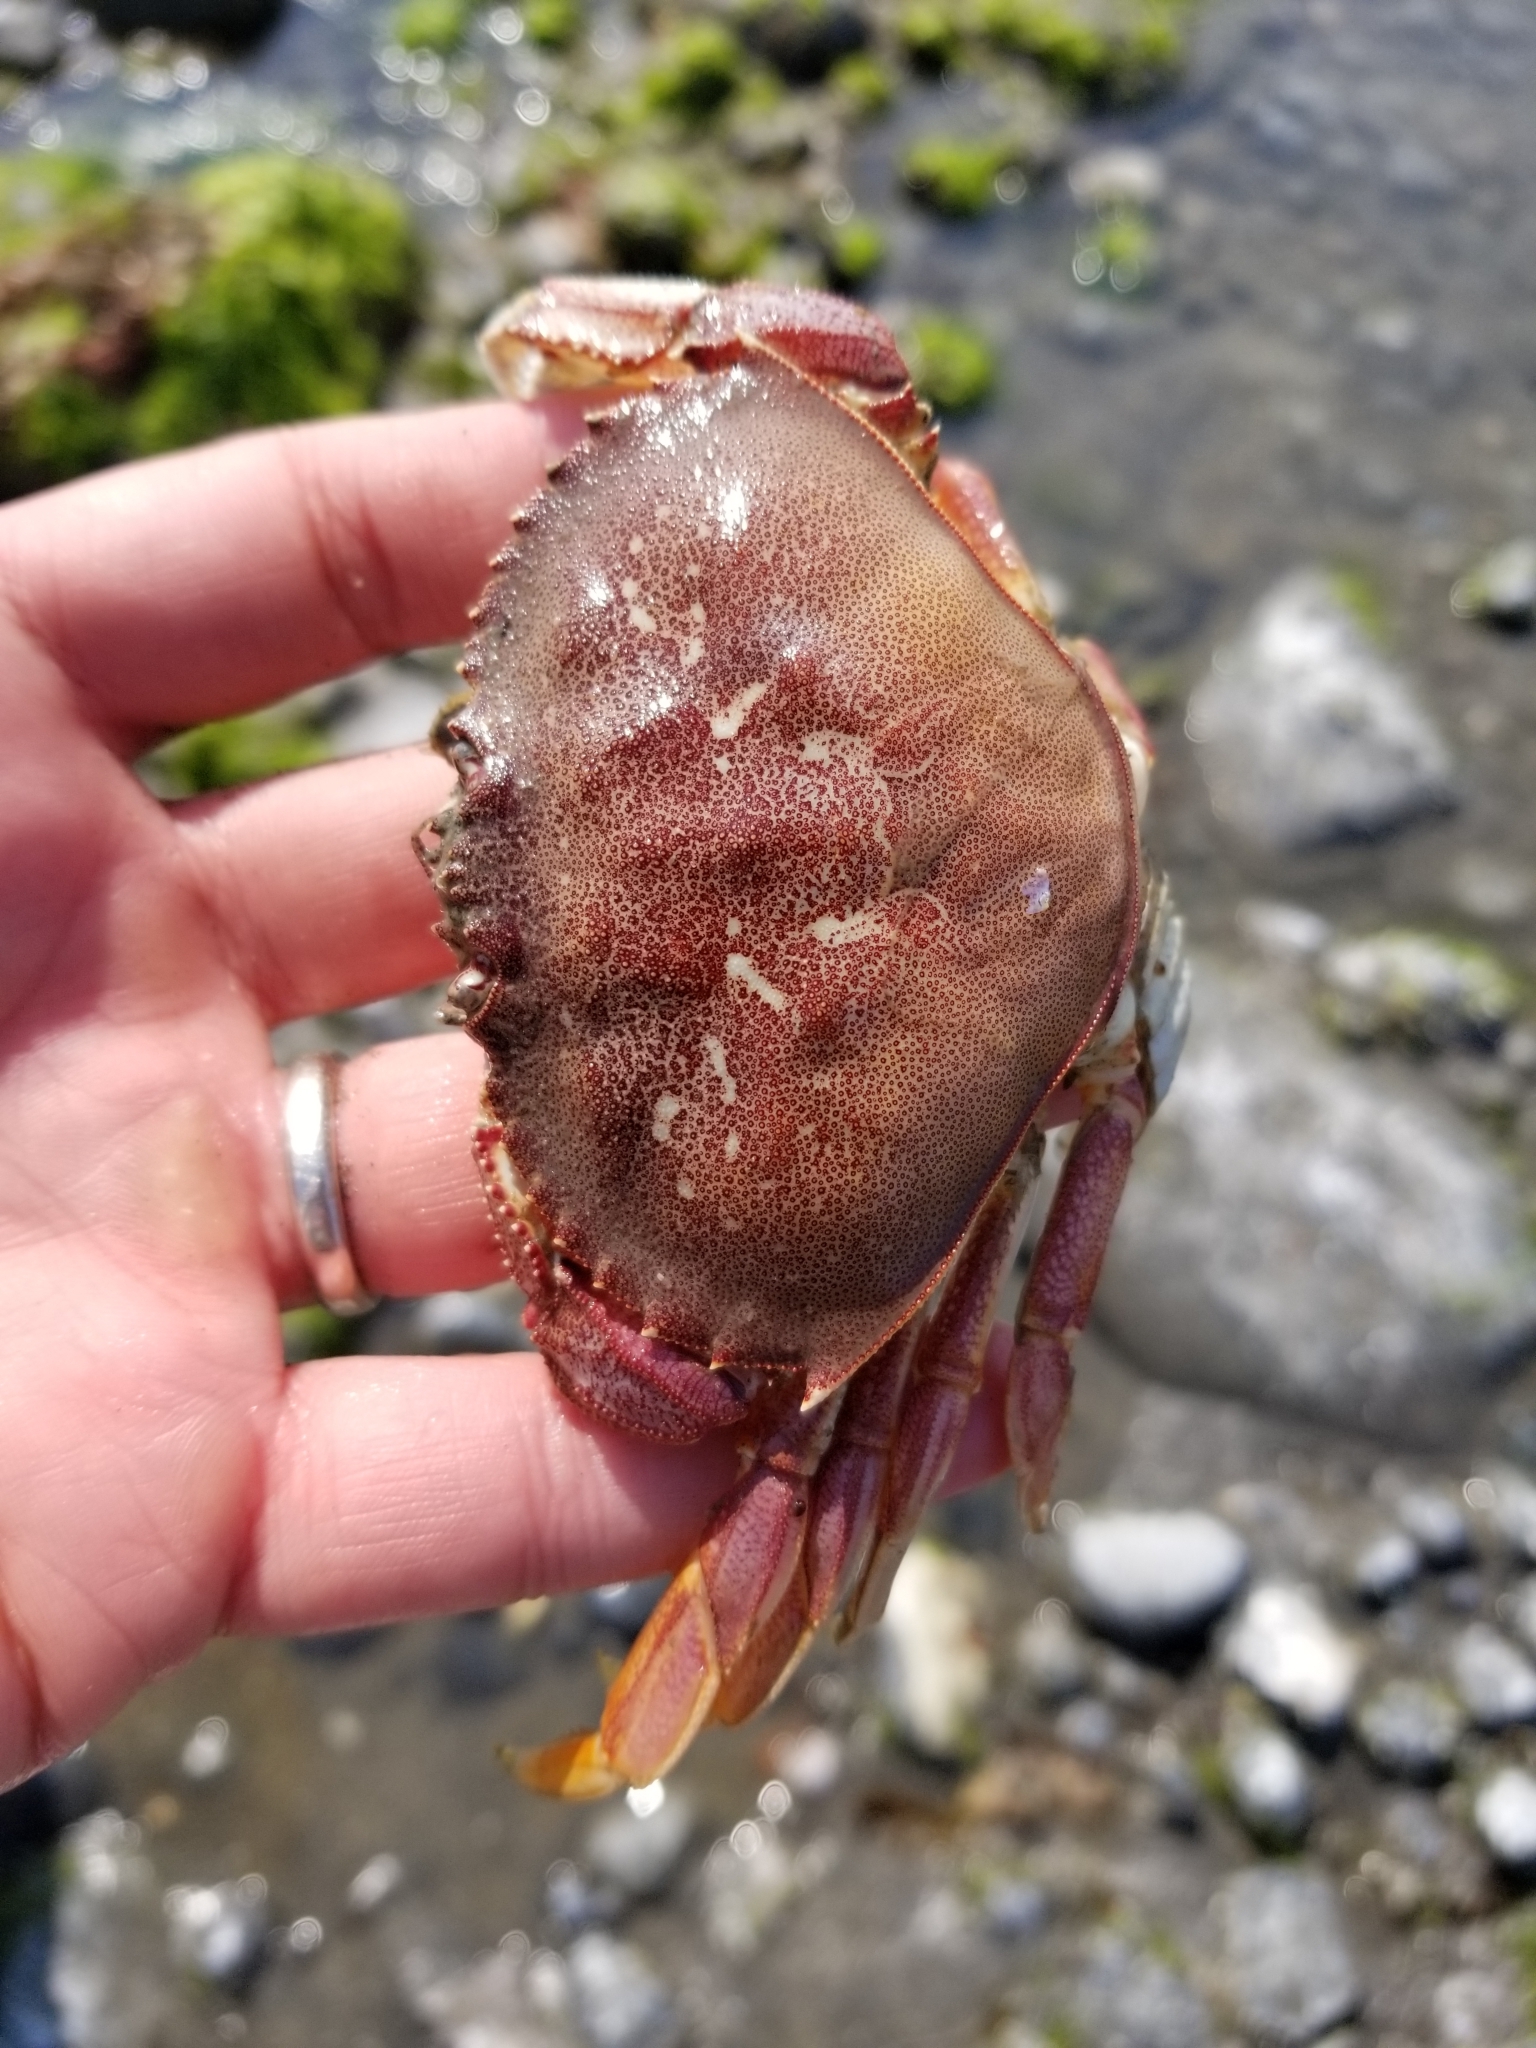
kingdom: Animalia
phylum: Arthropoda
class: Malacostraca
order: Decapoda
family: Cancridae
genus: Metacarcinus
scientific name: Metacarcinus magister
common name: Californian crab
